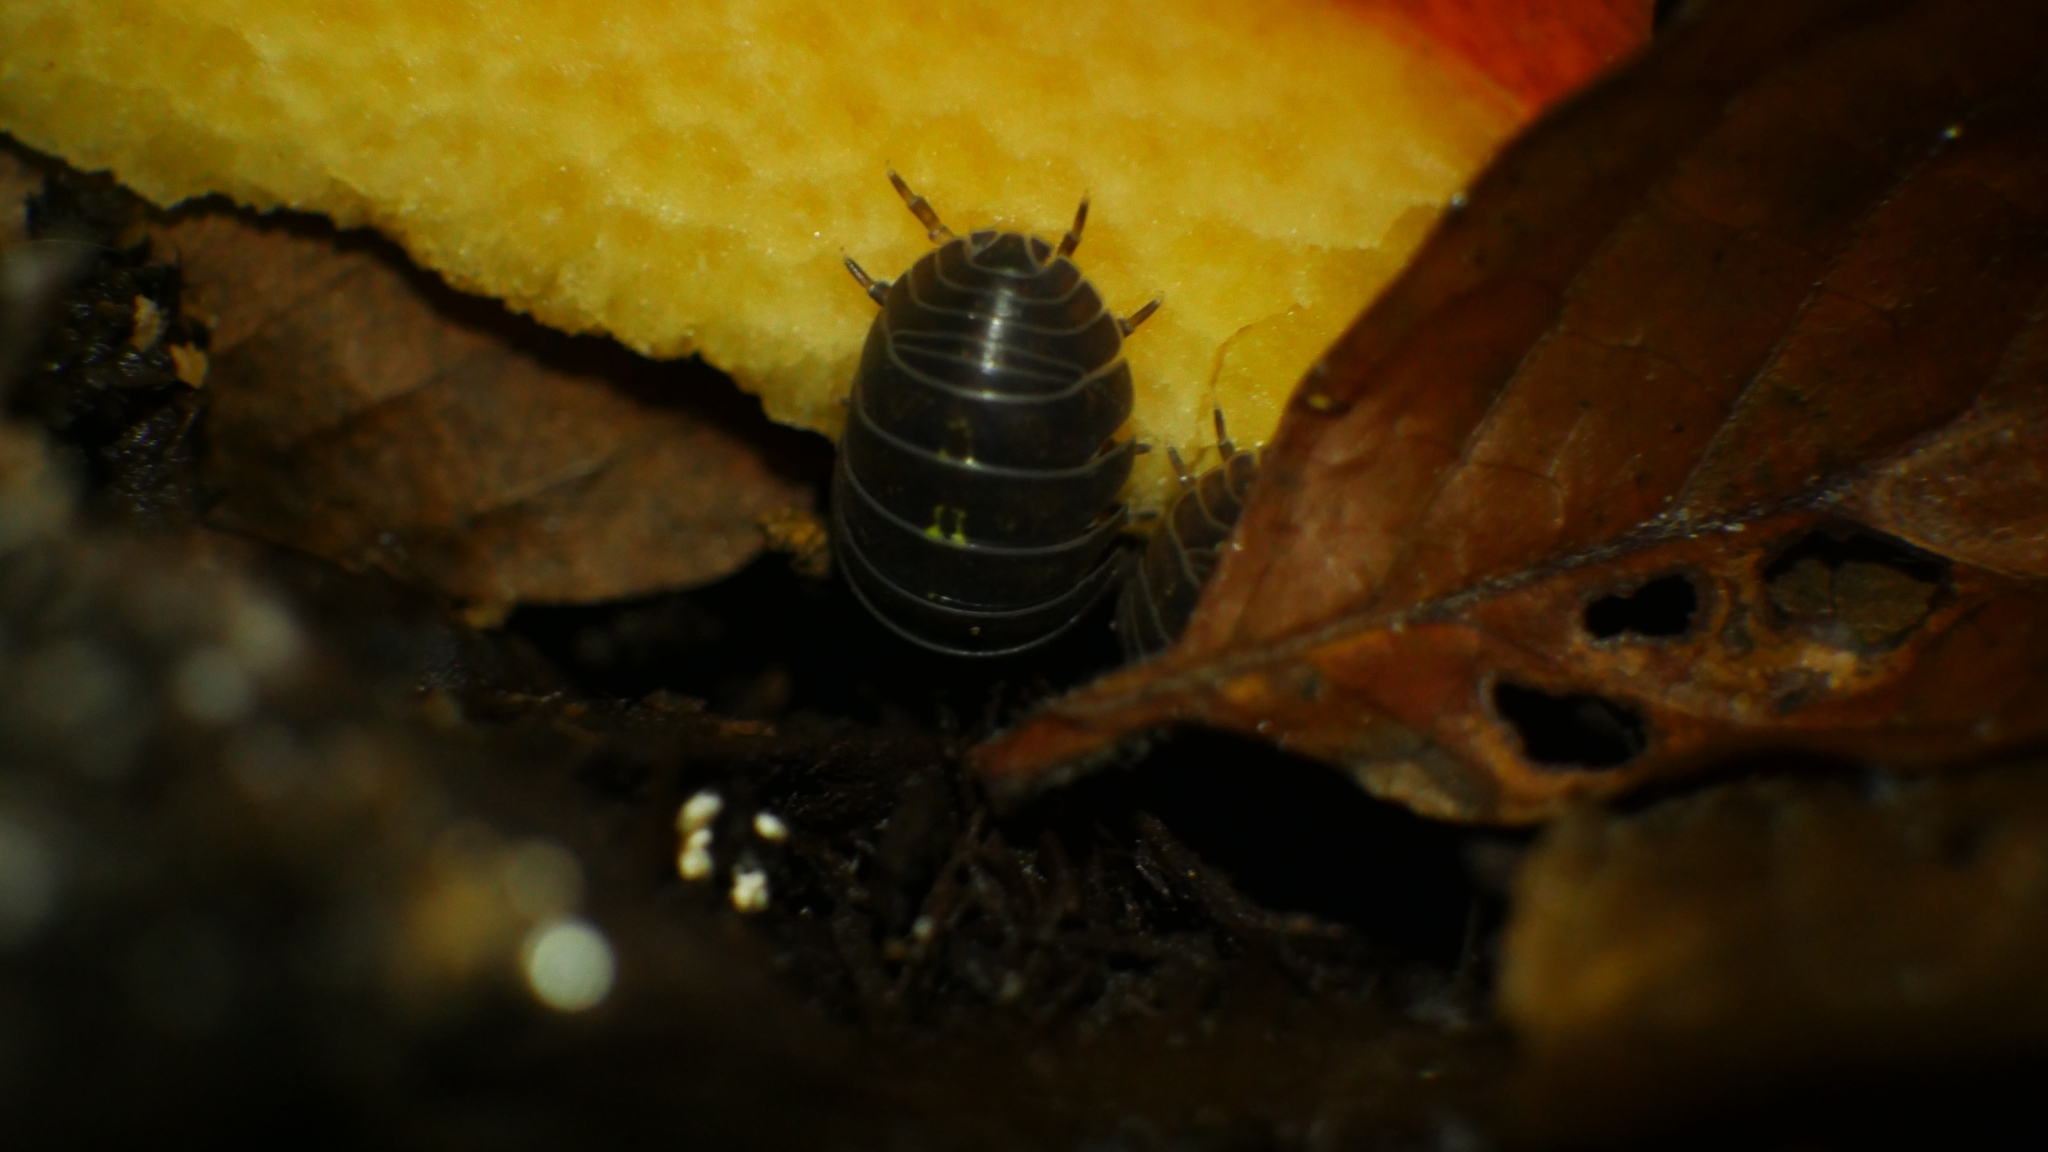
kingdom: Animalia
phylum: Arthropoda
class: Malacostraca
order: Isopoda
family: Armadillidiidae
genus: Armadillidium
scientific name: Armadillidium vulgare
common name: Common pill woodlouse
